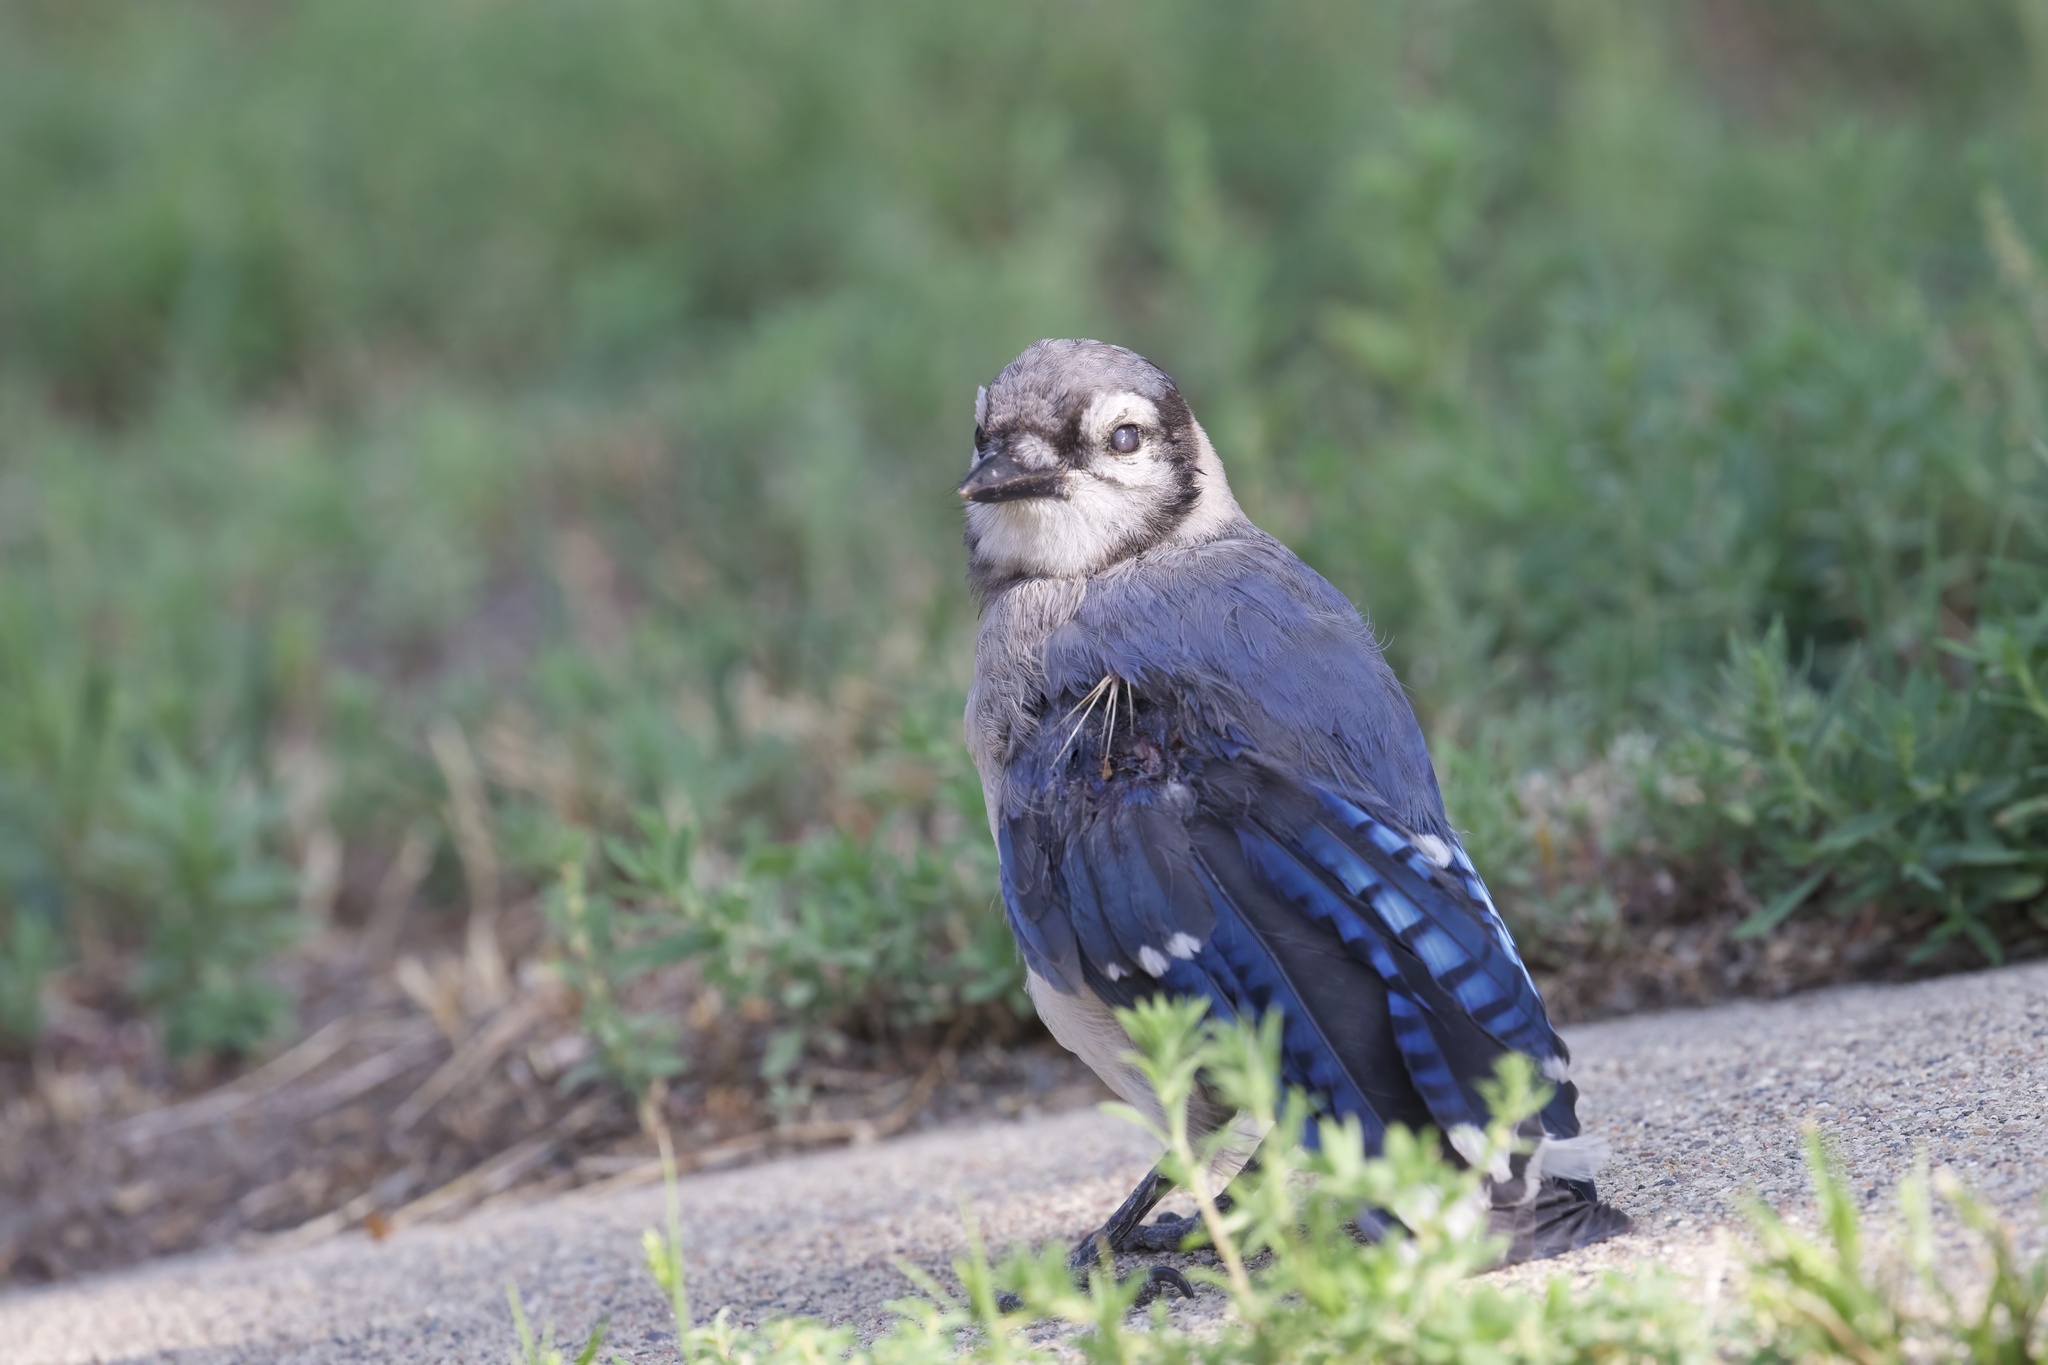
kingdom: Animalia
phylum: Chordata
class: Aves
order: Passeriformes
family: Corvidae
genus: Cyanocitta
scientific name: Cyanocitta cristata
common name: Blue jay
